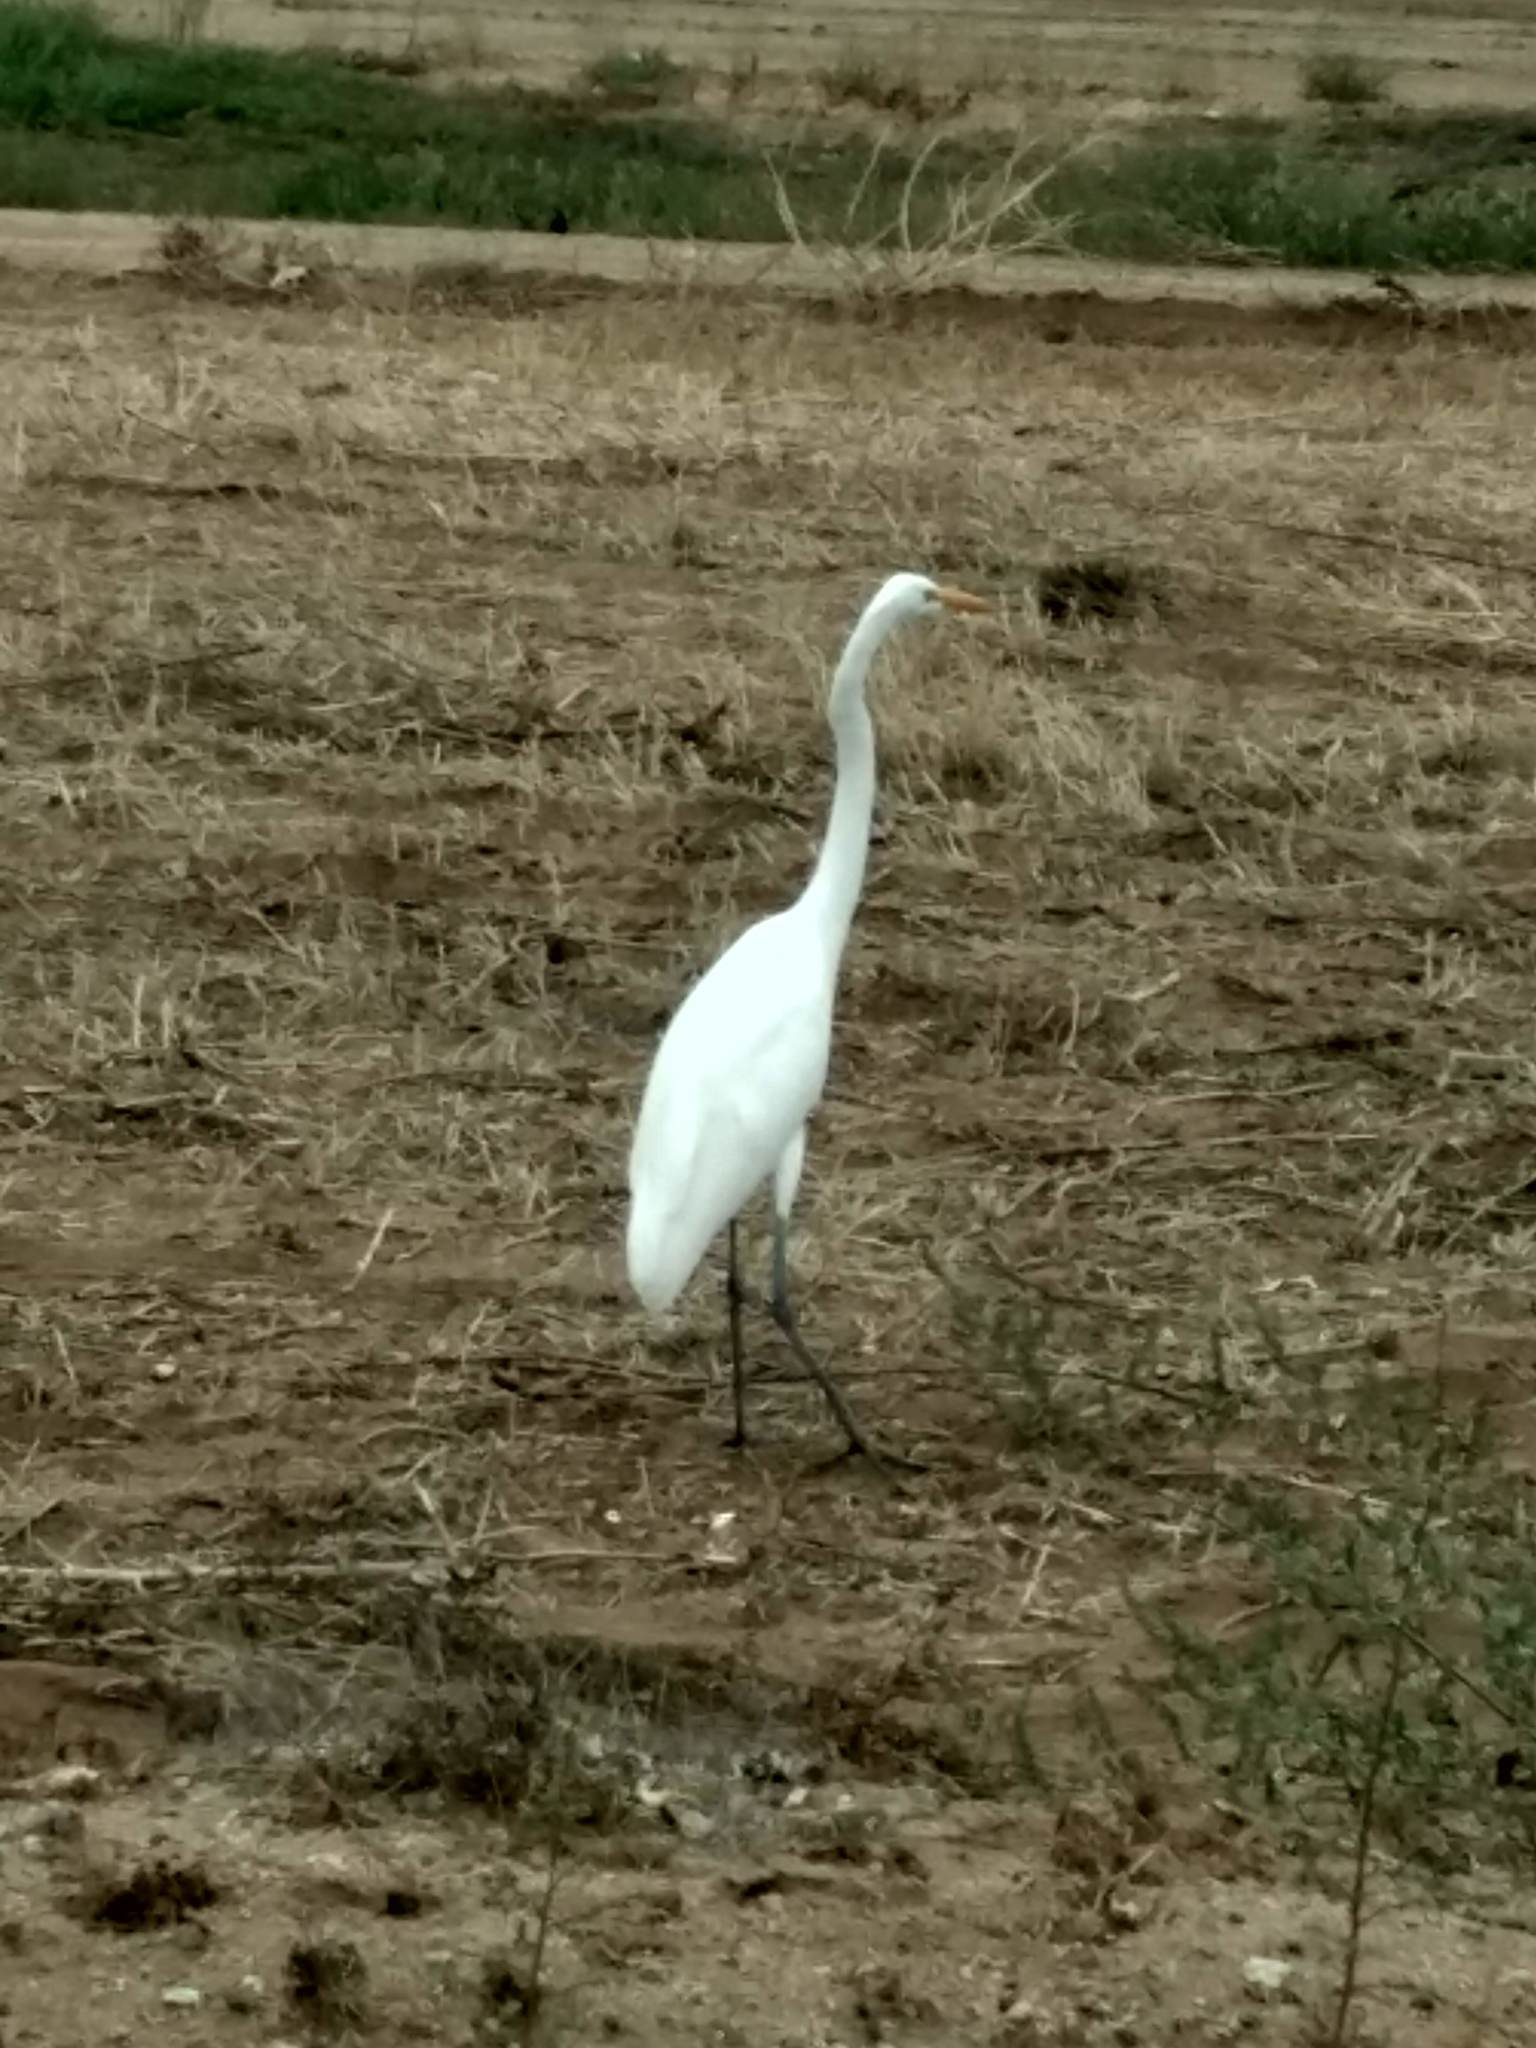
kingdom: Animalia
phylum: Chordata
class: Aves
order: Pelecaniformes
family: Ardeidae
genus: Ardea
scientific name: Ardea alba
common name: Great egret
